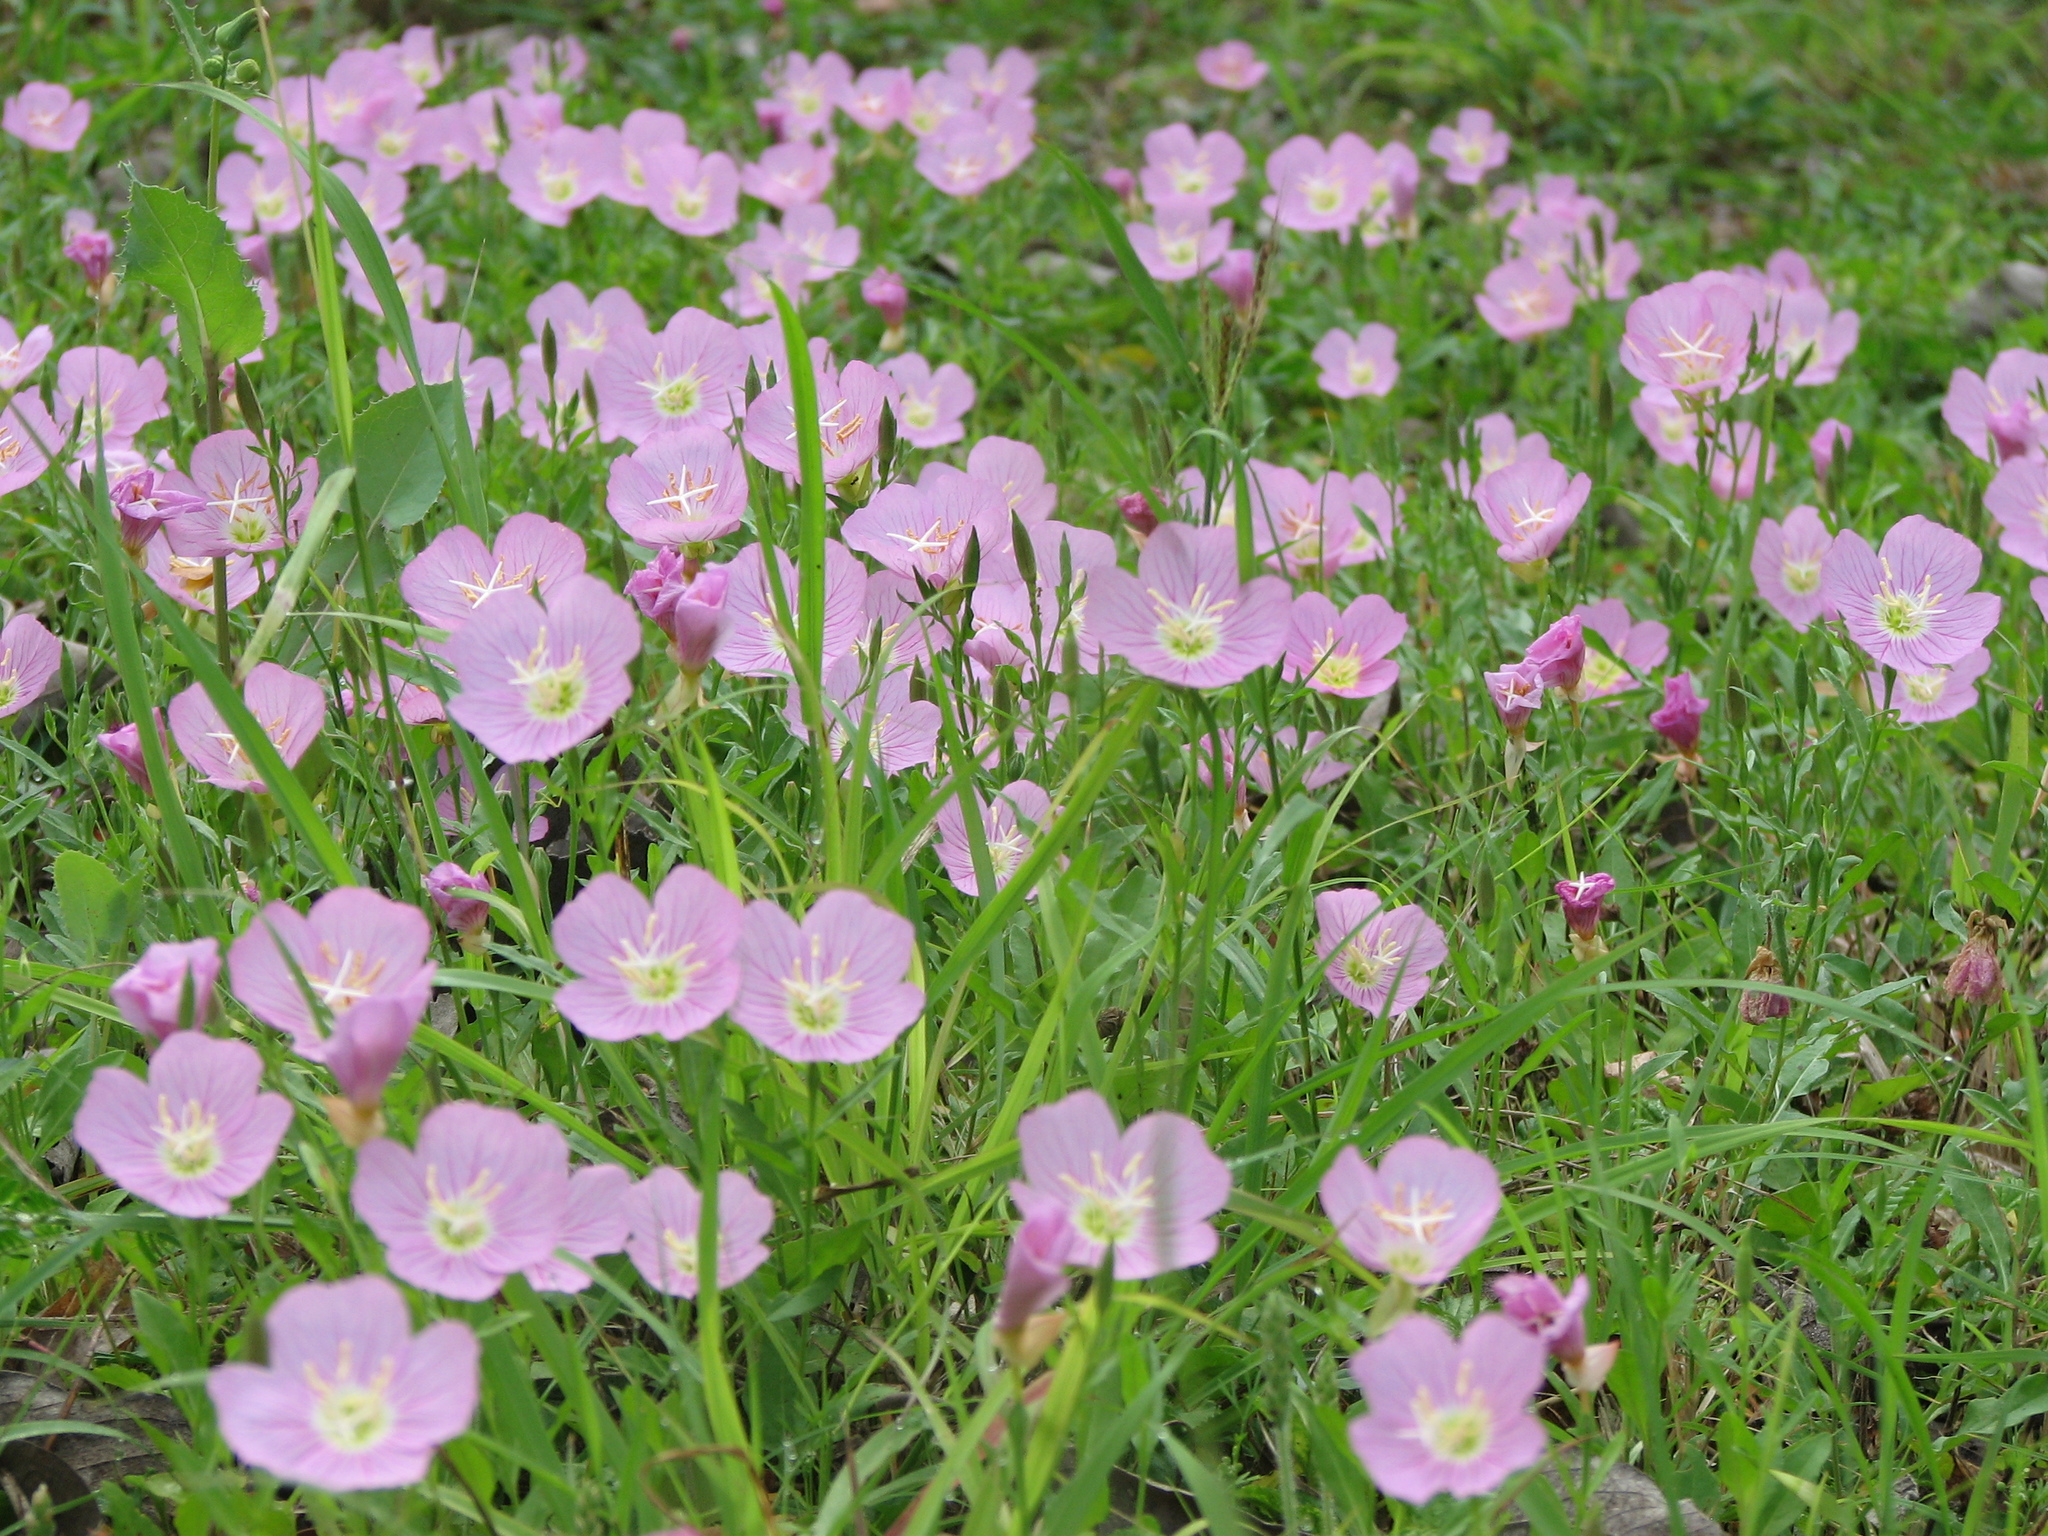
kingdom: Plantae
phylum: Tracheophyta
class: Magnoliopsida
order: Myrtales
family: Onagraceae
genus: Oenothera
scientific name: Oenothera speciosa
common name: White evening-primrose
